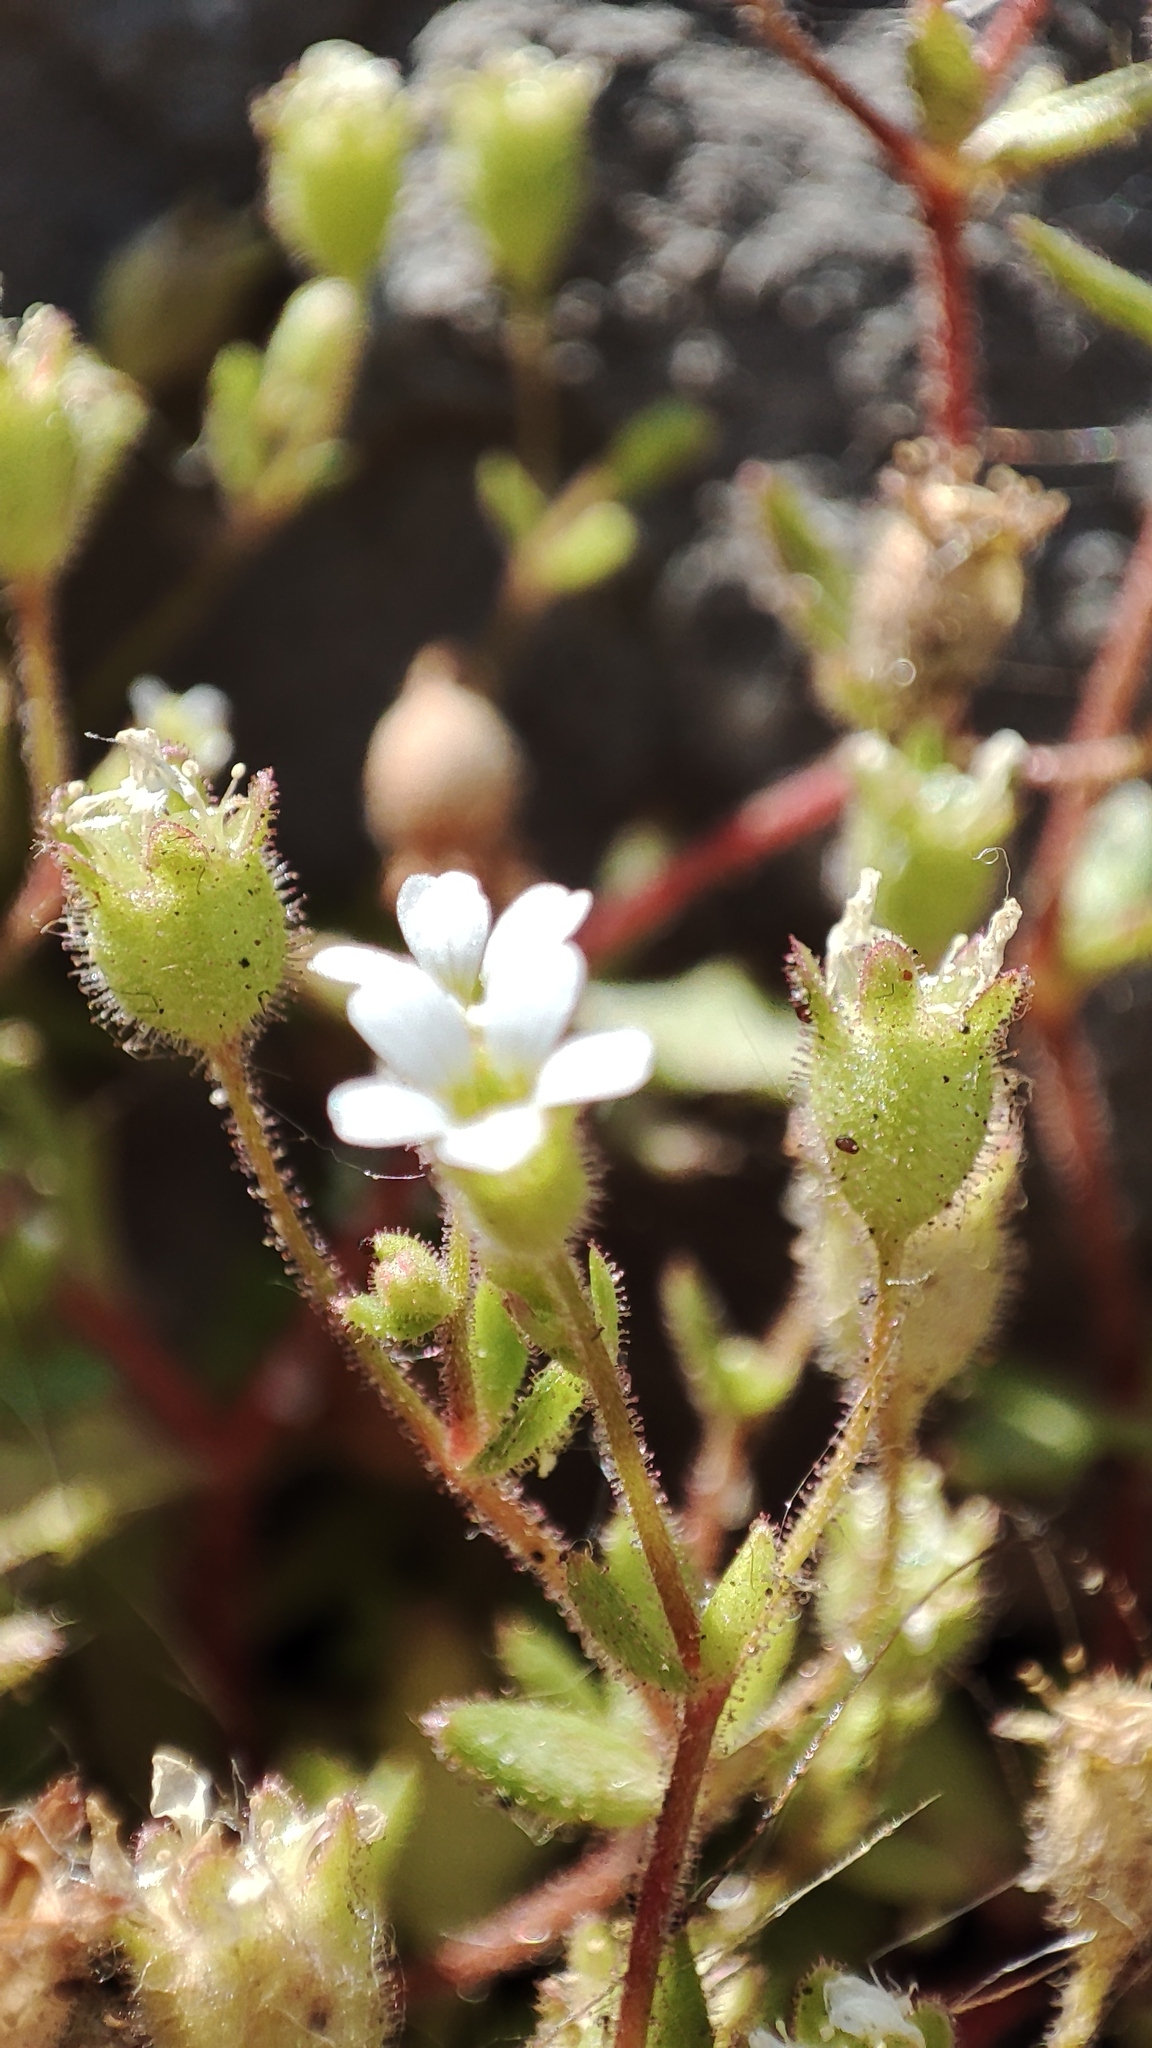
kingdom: Plantae
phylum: Tracheophyta
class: Magnoliopsida
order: Saxifragales
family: Saxifragaceae
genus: Saxifraga
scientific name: Saxifraga tridactylites
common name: Rue-leaved saxifrage
